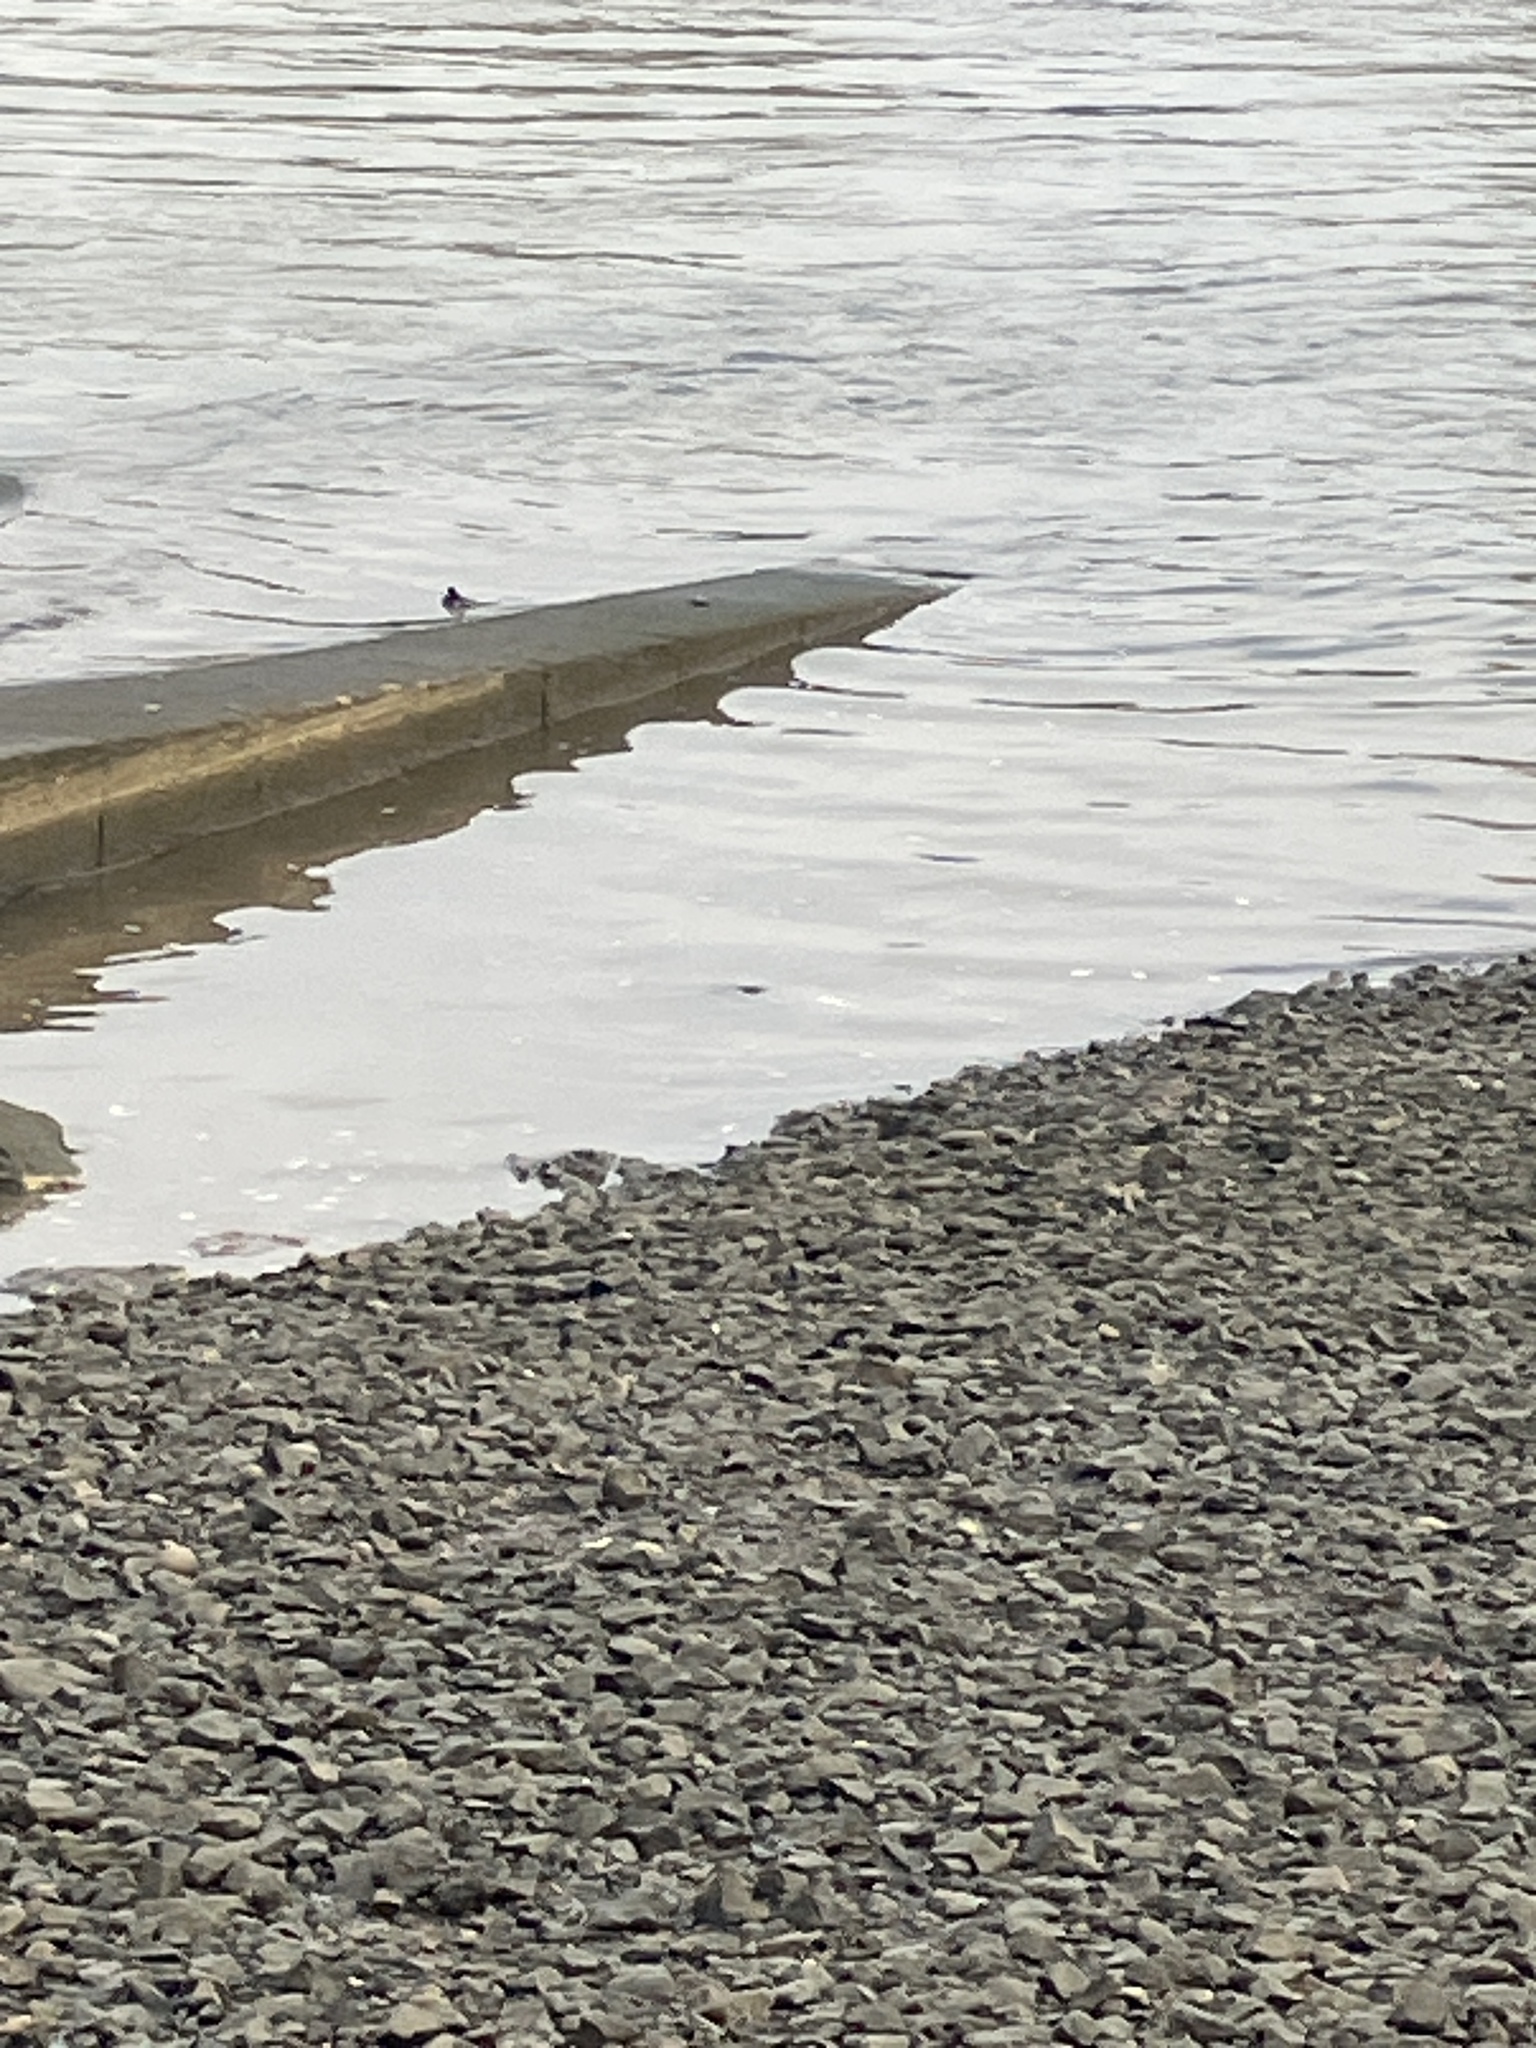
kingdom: Animalia
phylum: Chordata
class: Aves
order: Passeriformes
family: Motacillidae
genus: Motacilla
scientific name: Motacilla alba
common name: White wagtail
